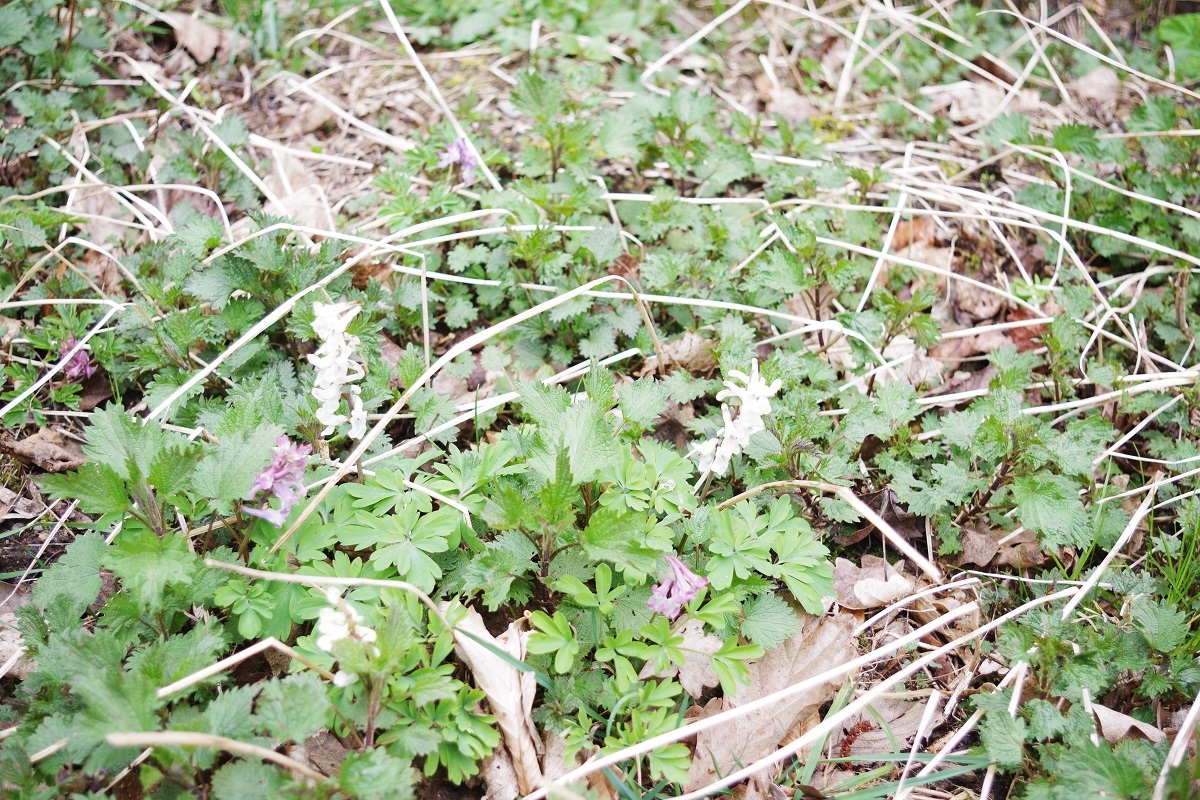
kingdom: Plantae
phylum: Tracheophyta
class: Magnoliopsida
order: Ranunculales
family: Papaveraceae
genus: Corydalis
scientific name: Corydalis cava
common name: Hollowroot
